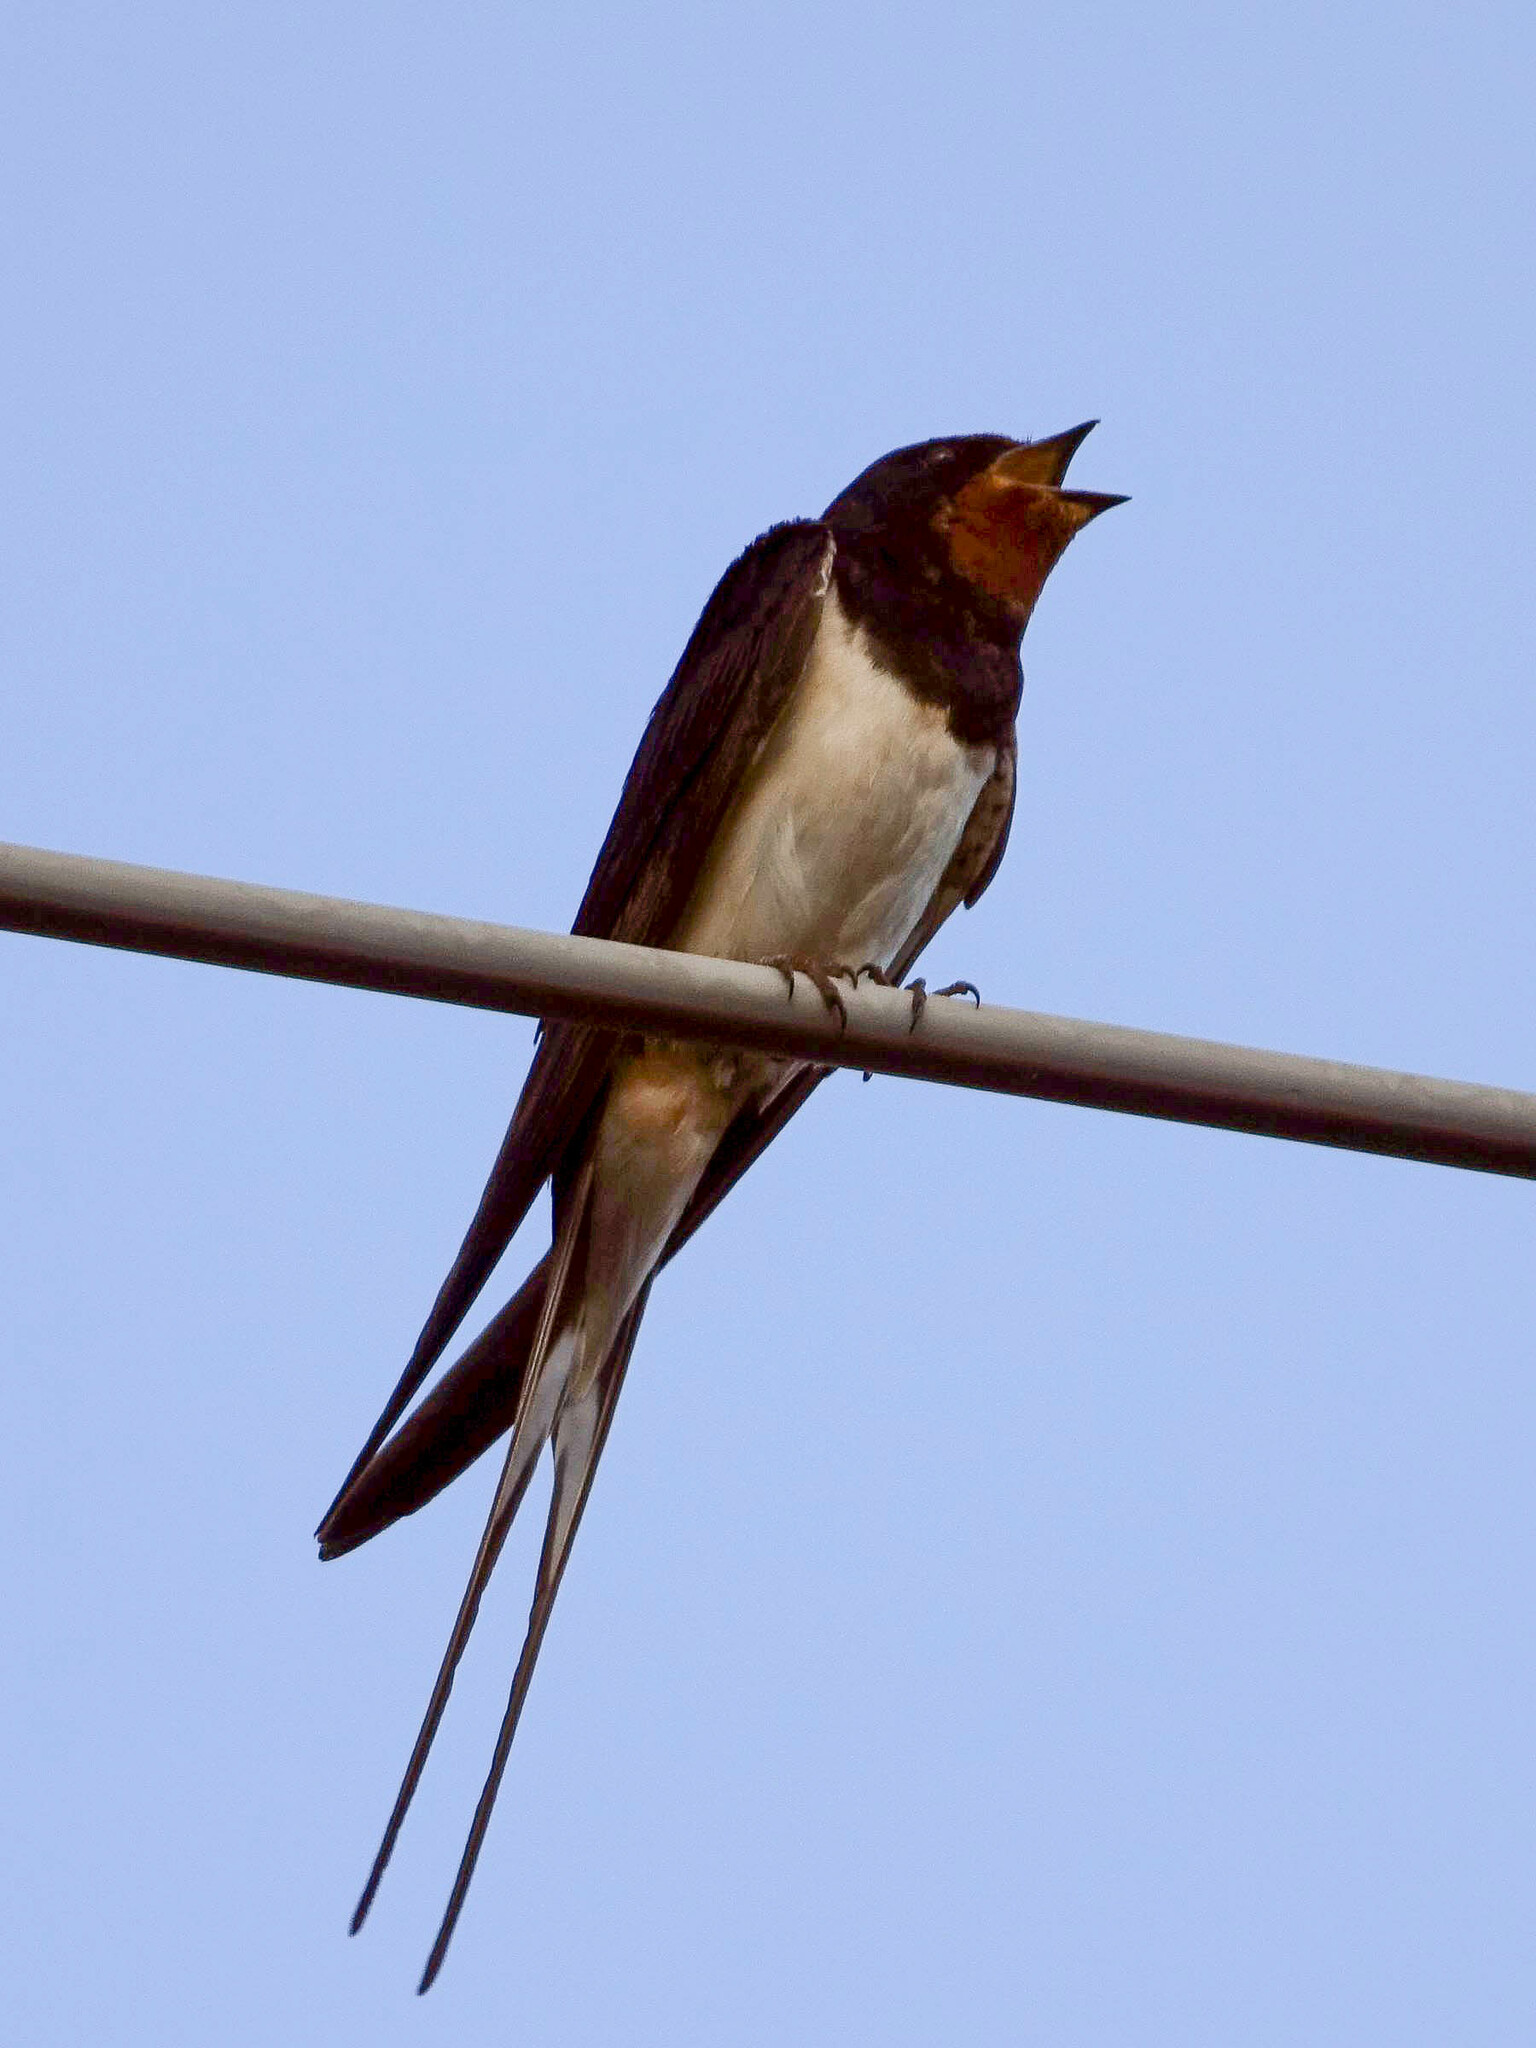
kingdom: Animalia
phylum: Chordata
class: Aves
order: Passeriformes
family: Hirundinidae
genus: Hirundo
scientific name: Hirundo rustica
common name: Barn swallow
